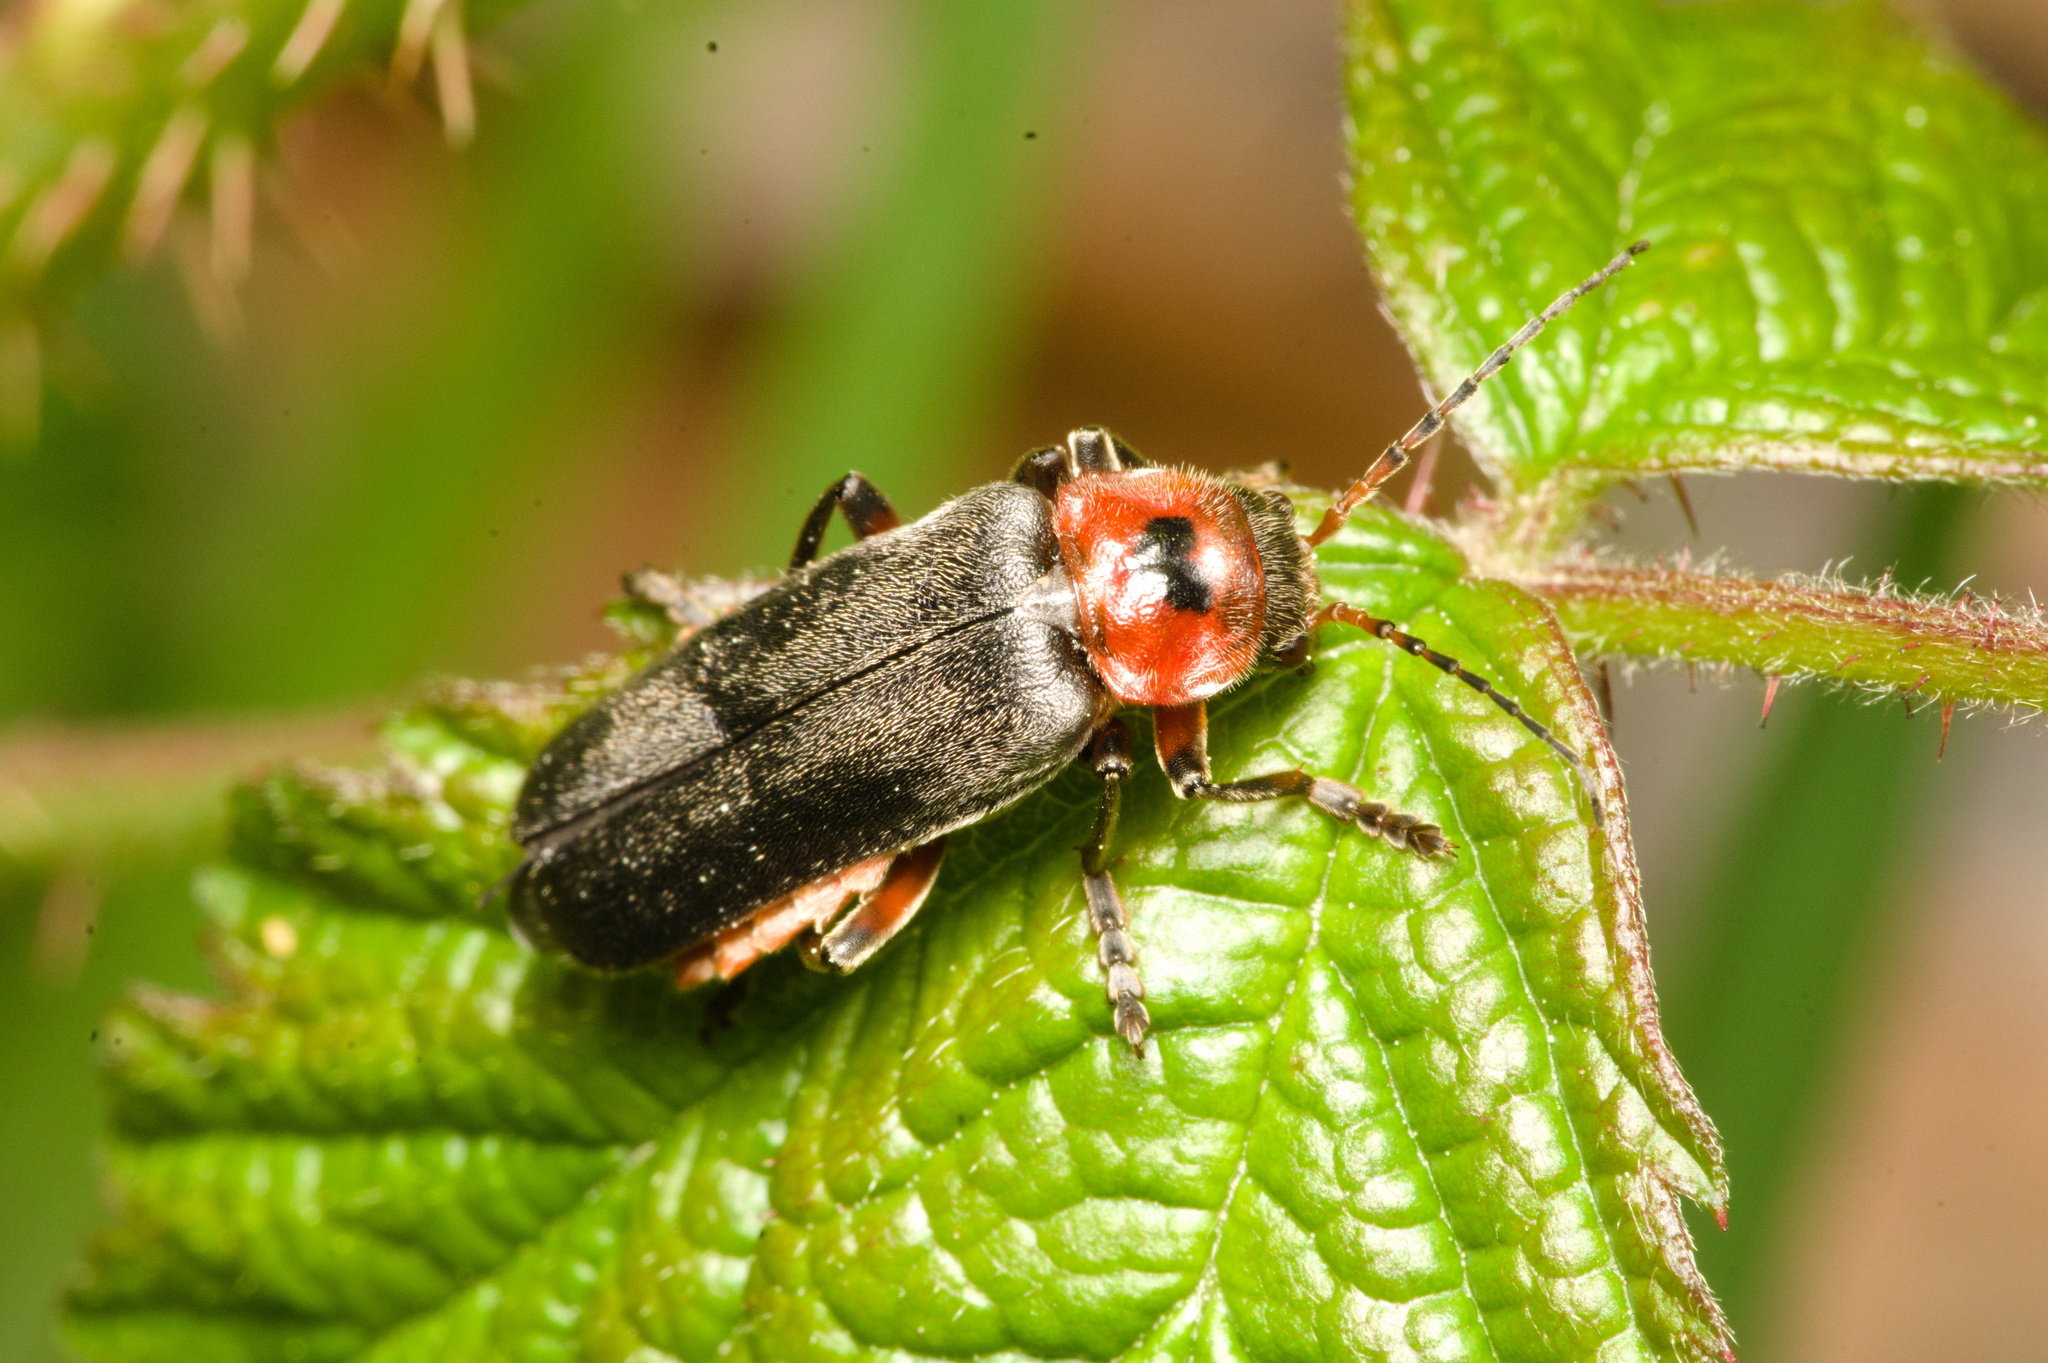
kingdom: Animalia
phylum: Arthropoda
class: Insecta
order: Coleoptera
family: Cantharidae
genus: Cantharis
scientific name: Cantharis rustica
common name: Soldier beetle
